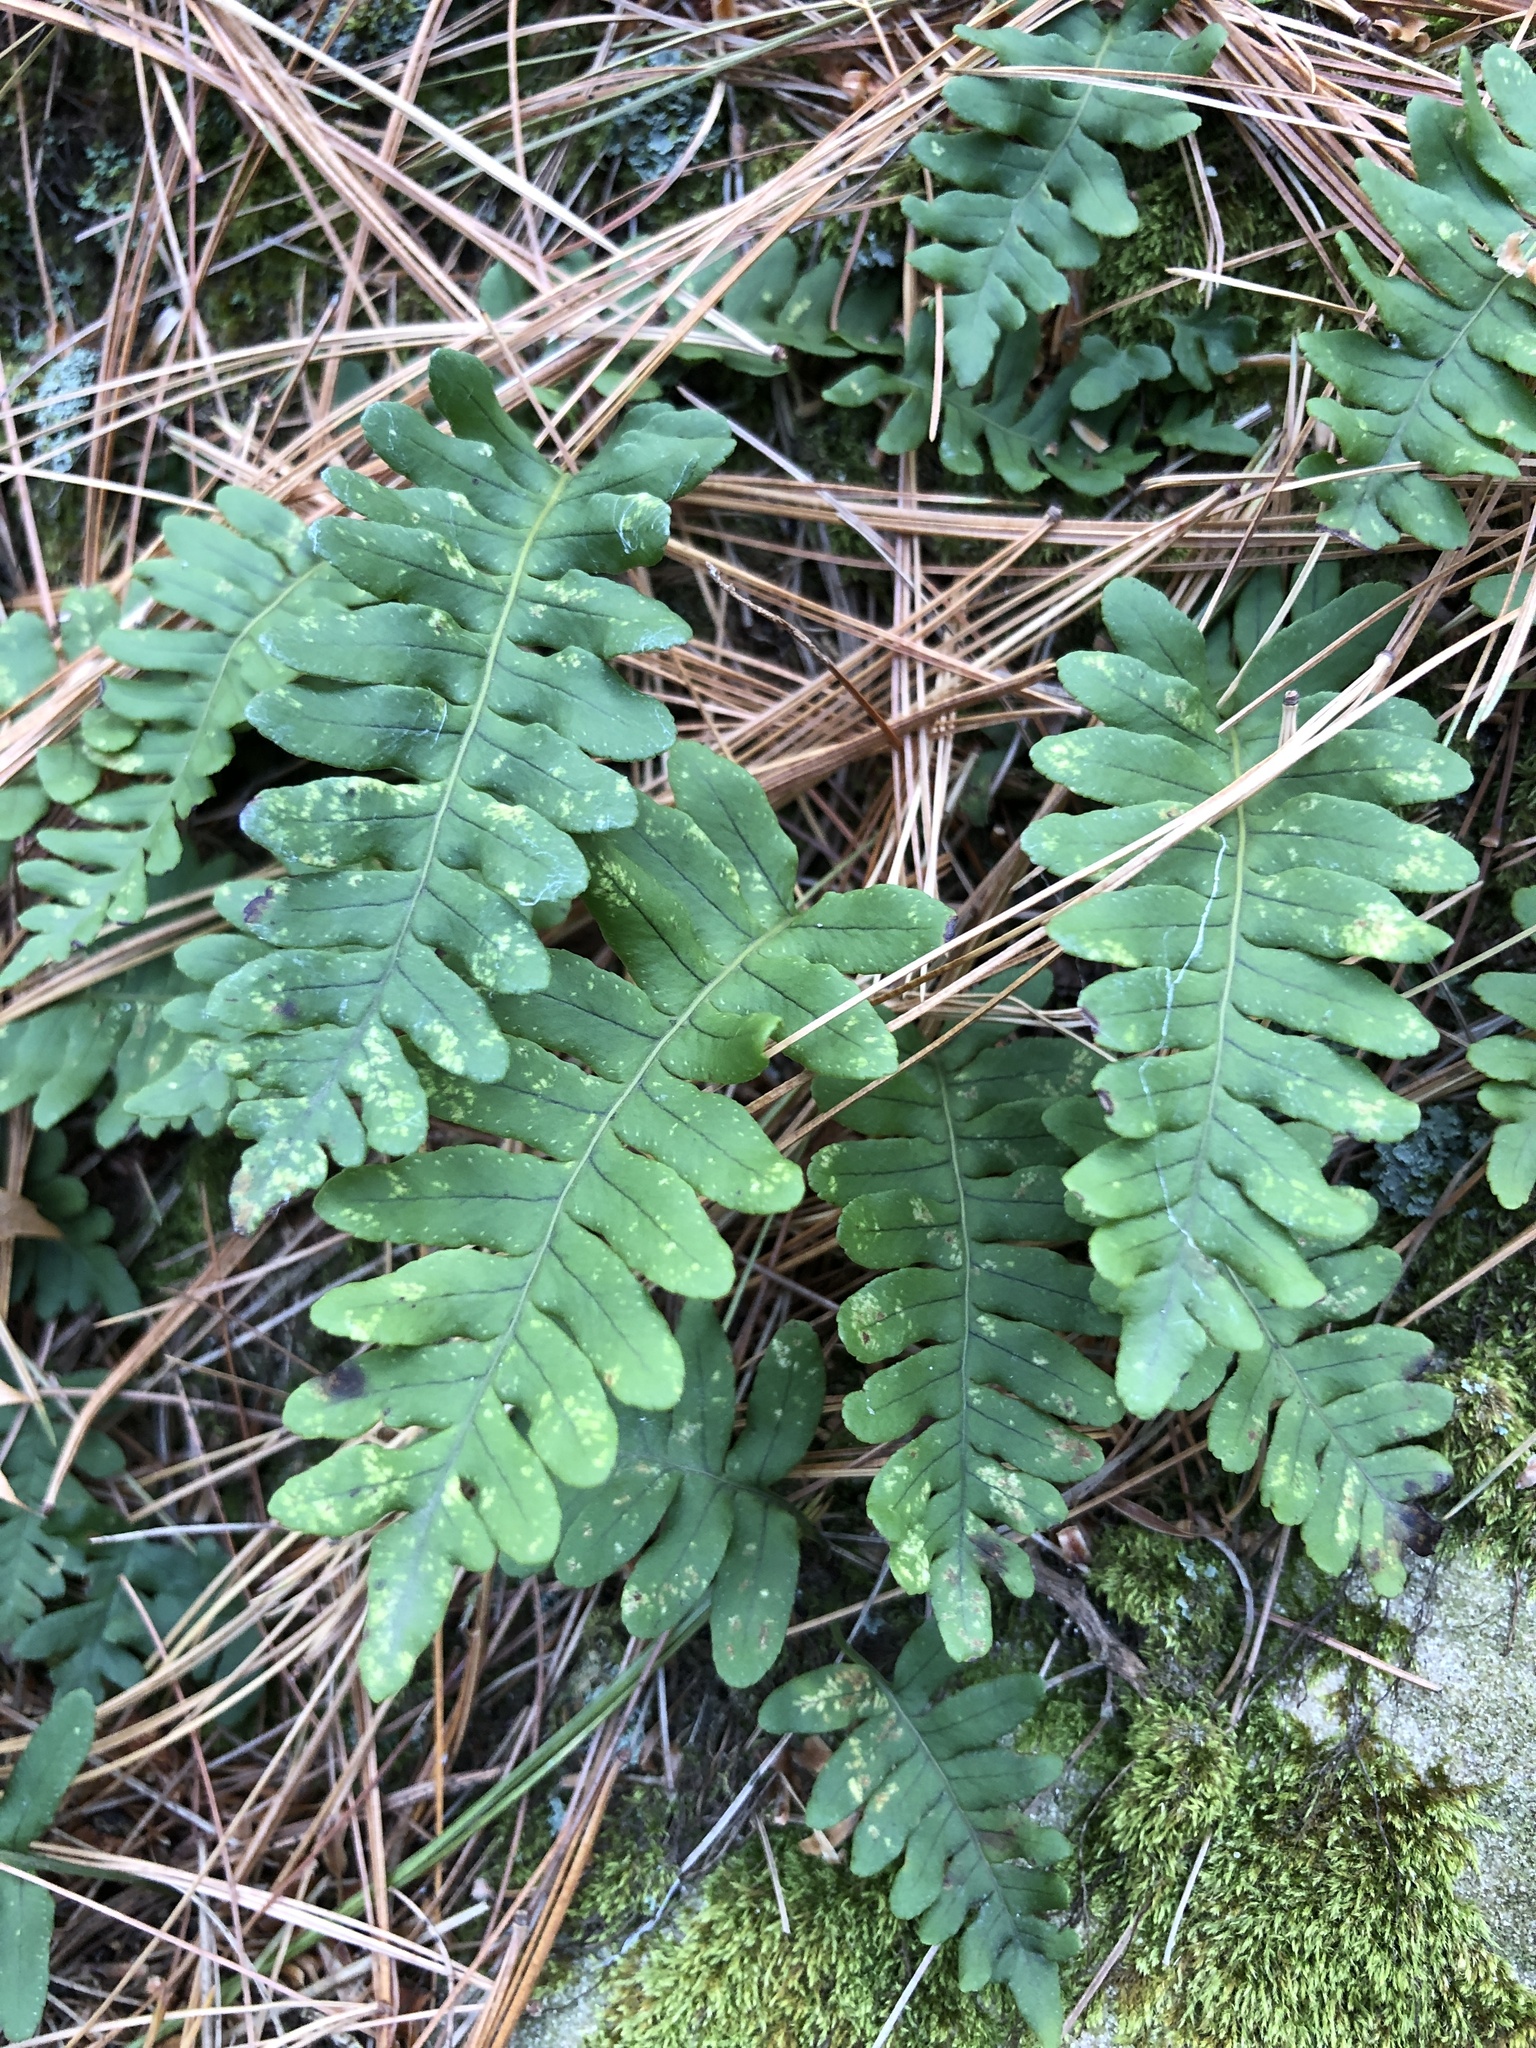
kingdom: Plantae
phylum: Tracheophyta
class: Polypodiopsida
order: Polypodiales
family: Polypodiaceae
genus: Polypodium
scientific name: Polypodium virginianum
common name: American wall fern
